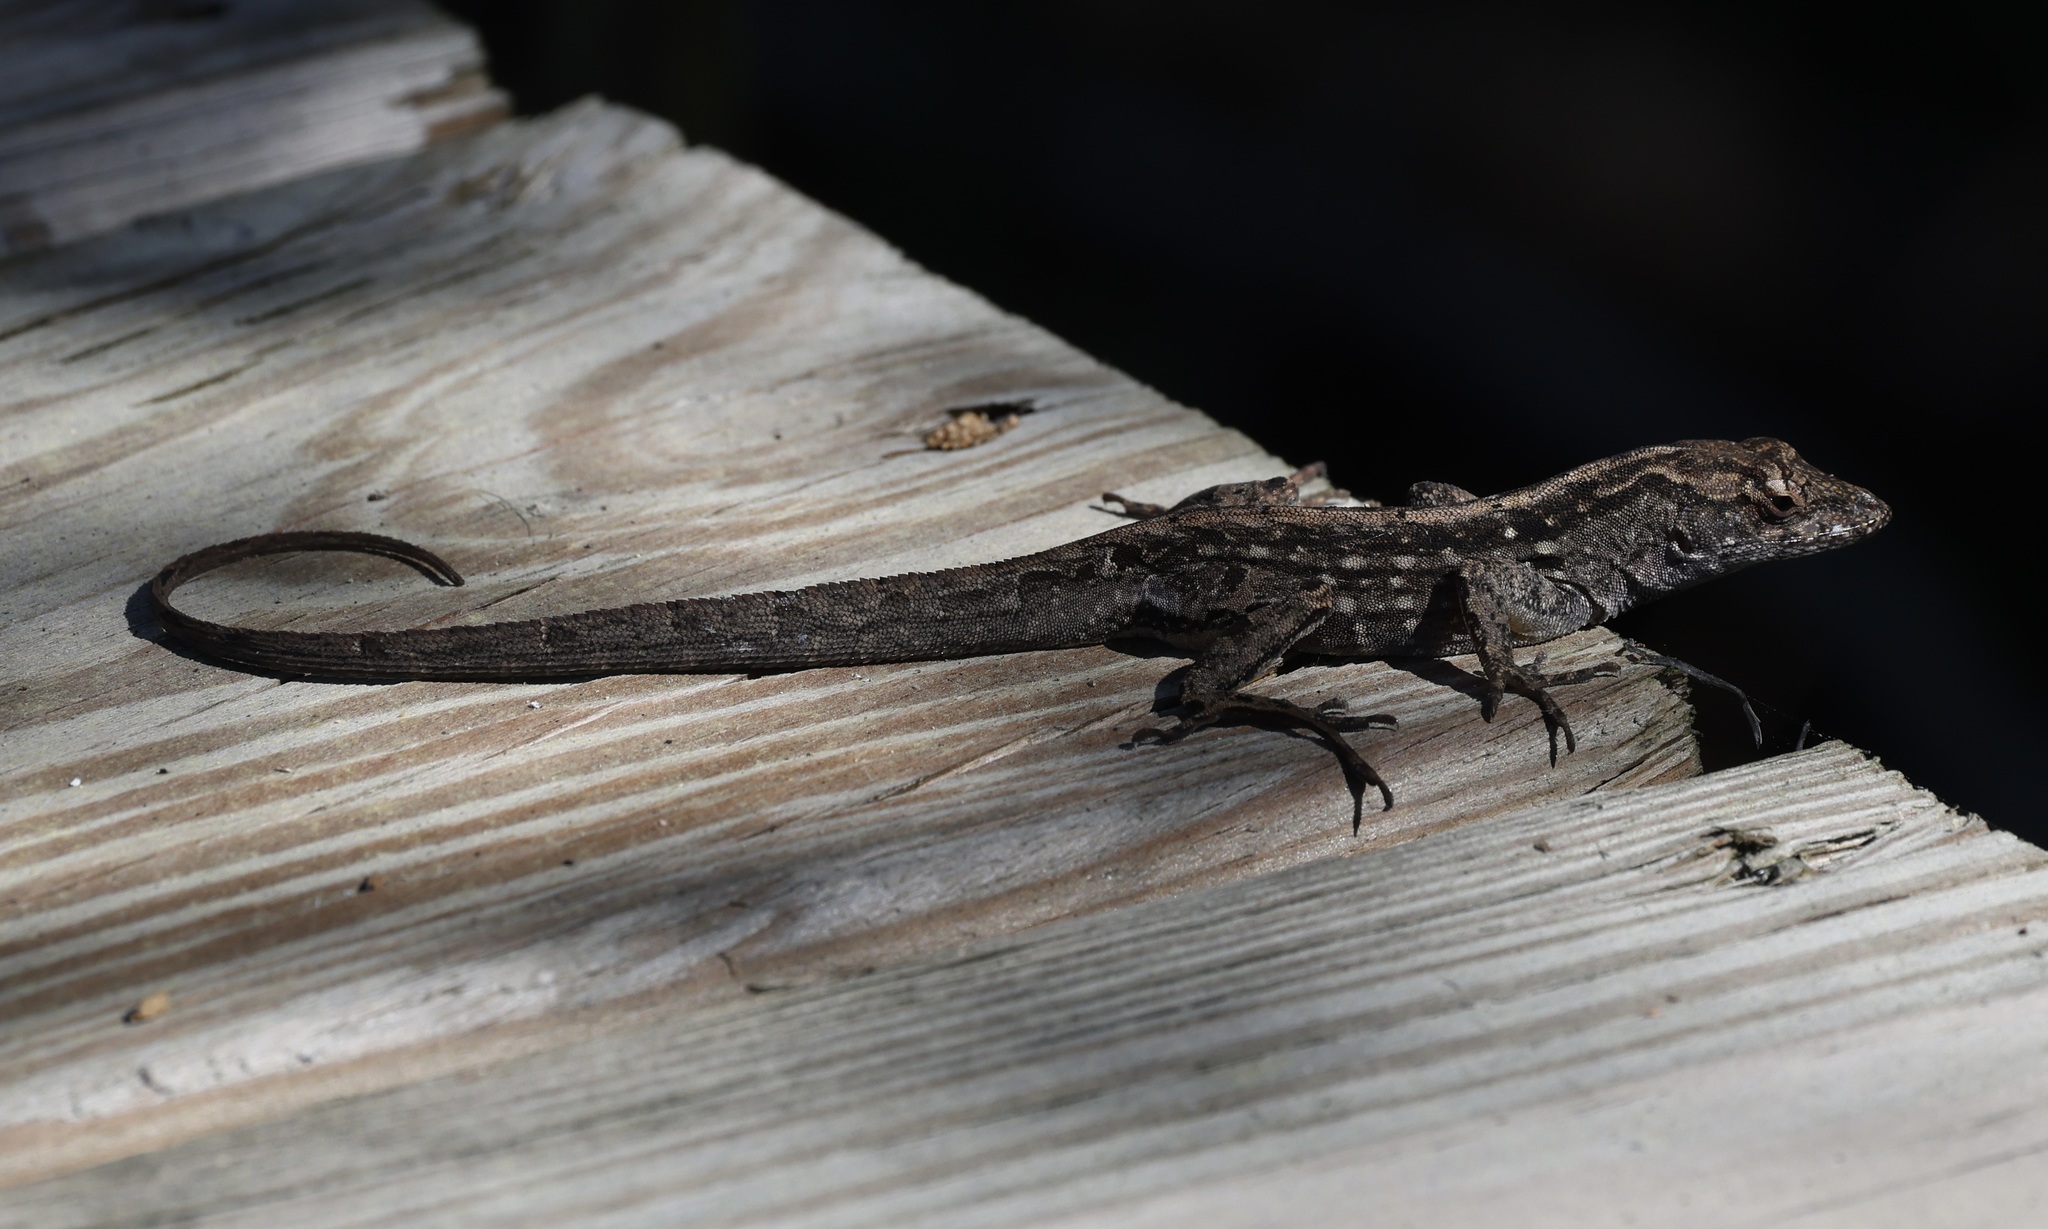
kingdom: Animalia
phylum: Chordata
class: Squamata
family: Dactyloidae
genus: Anolis
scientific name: Anolis sagrei
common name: Brown anole
